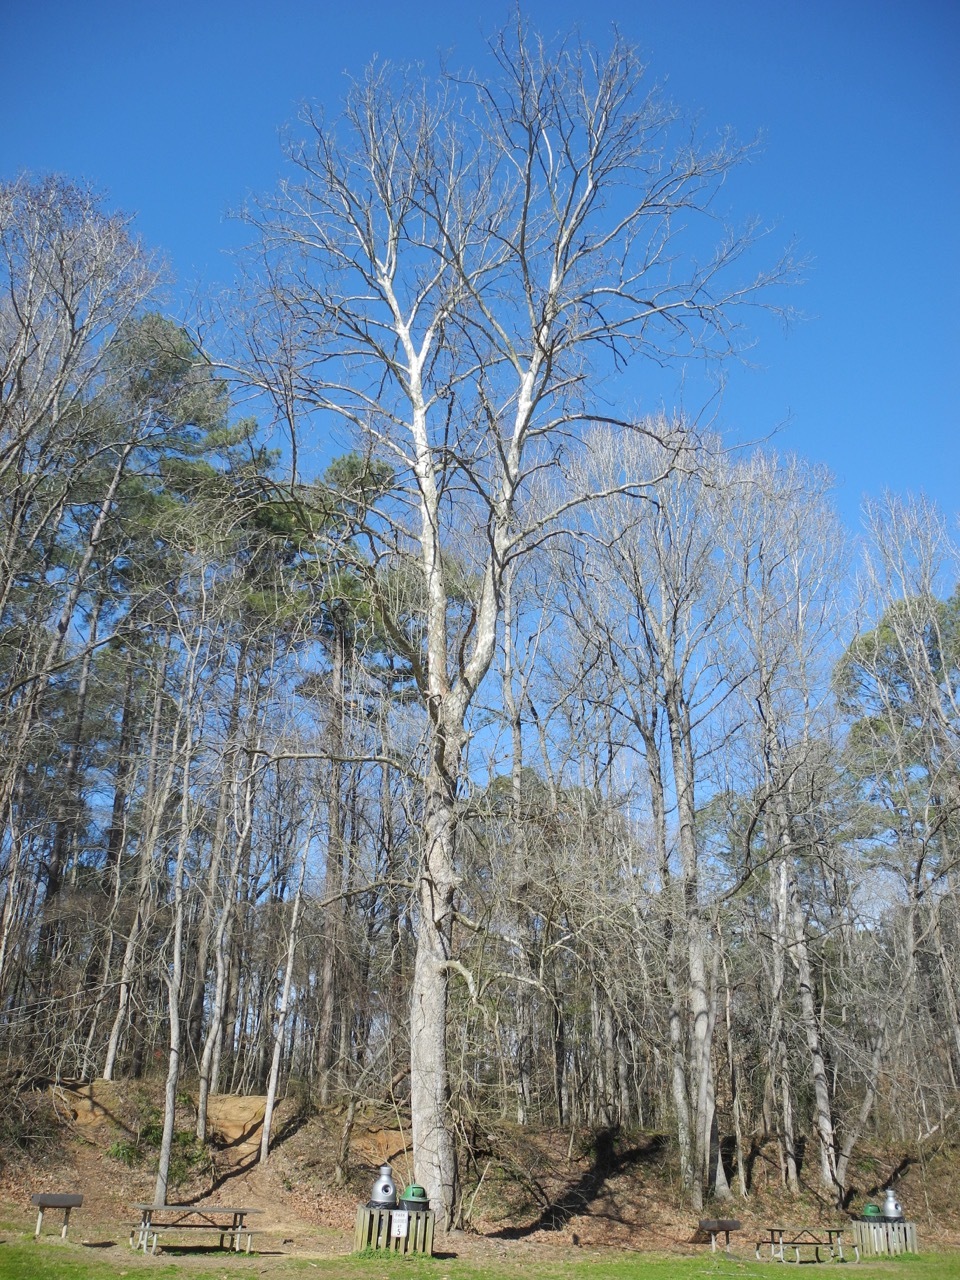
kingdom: Plantae
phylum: Tracheophyta
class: Magnoliopsida
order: Proteales
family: Platanaceae
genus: Platanus
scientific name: Platanus occidentalis
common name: American sycamore
